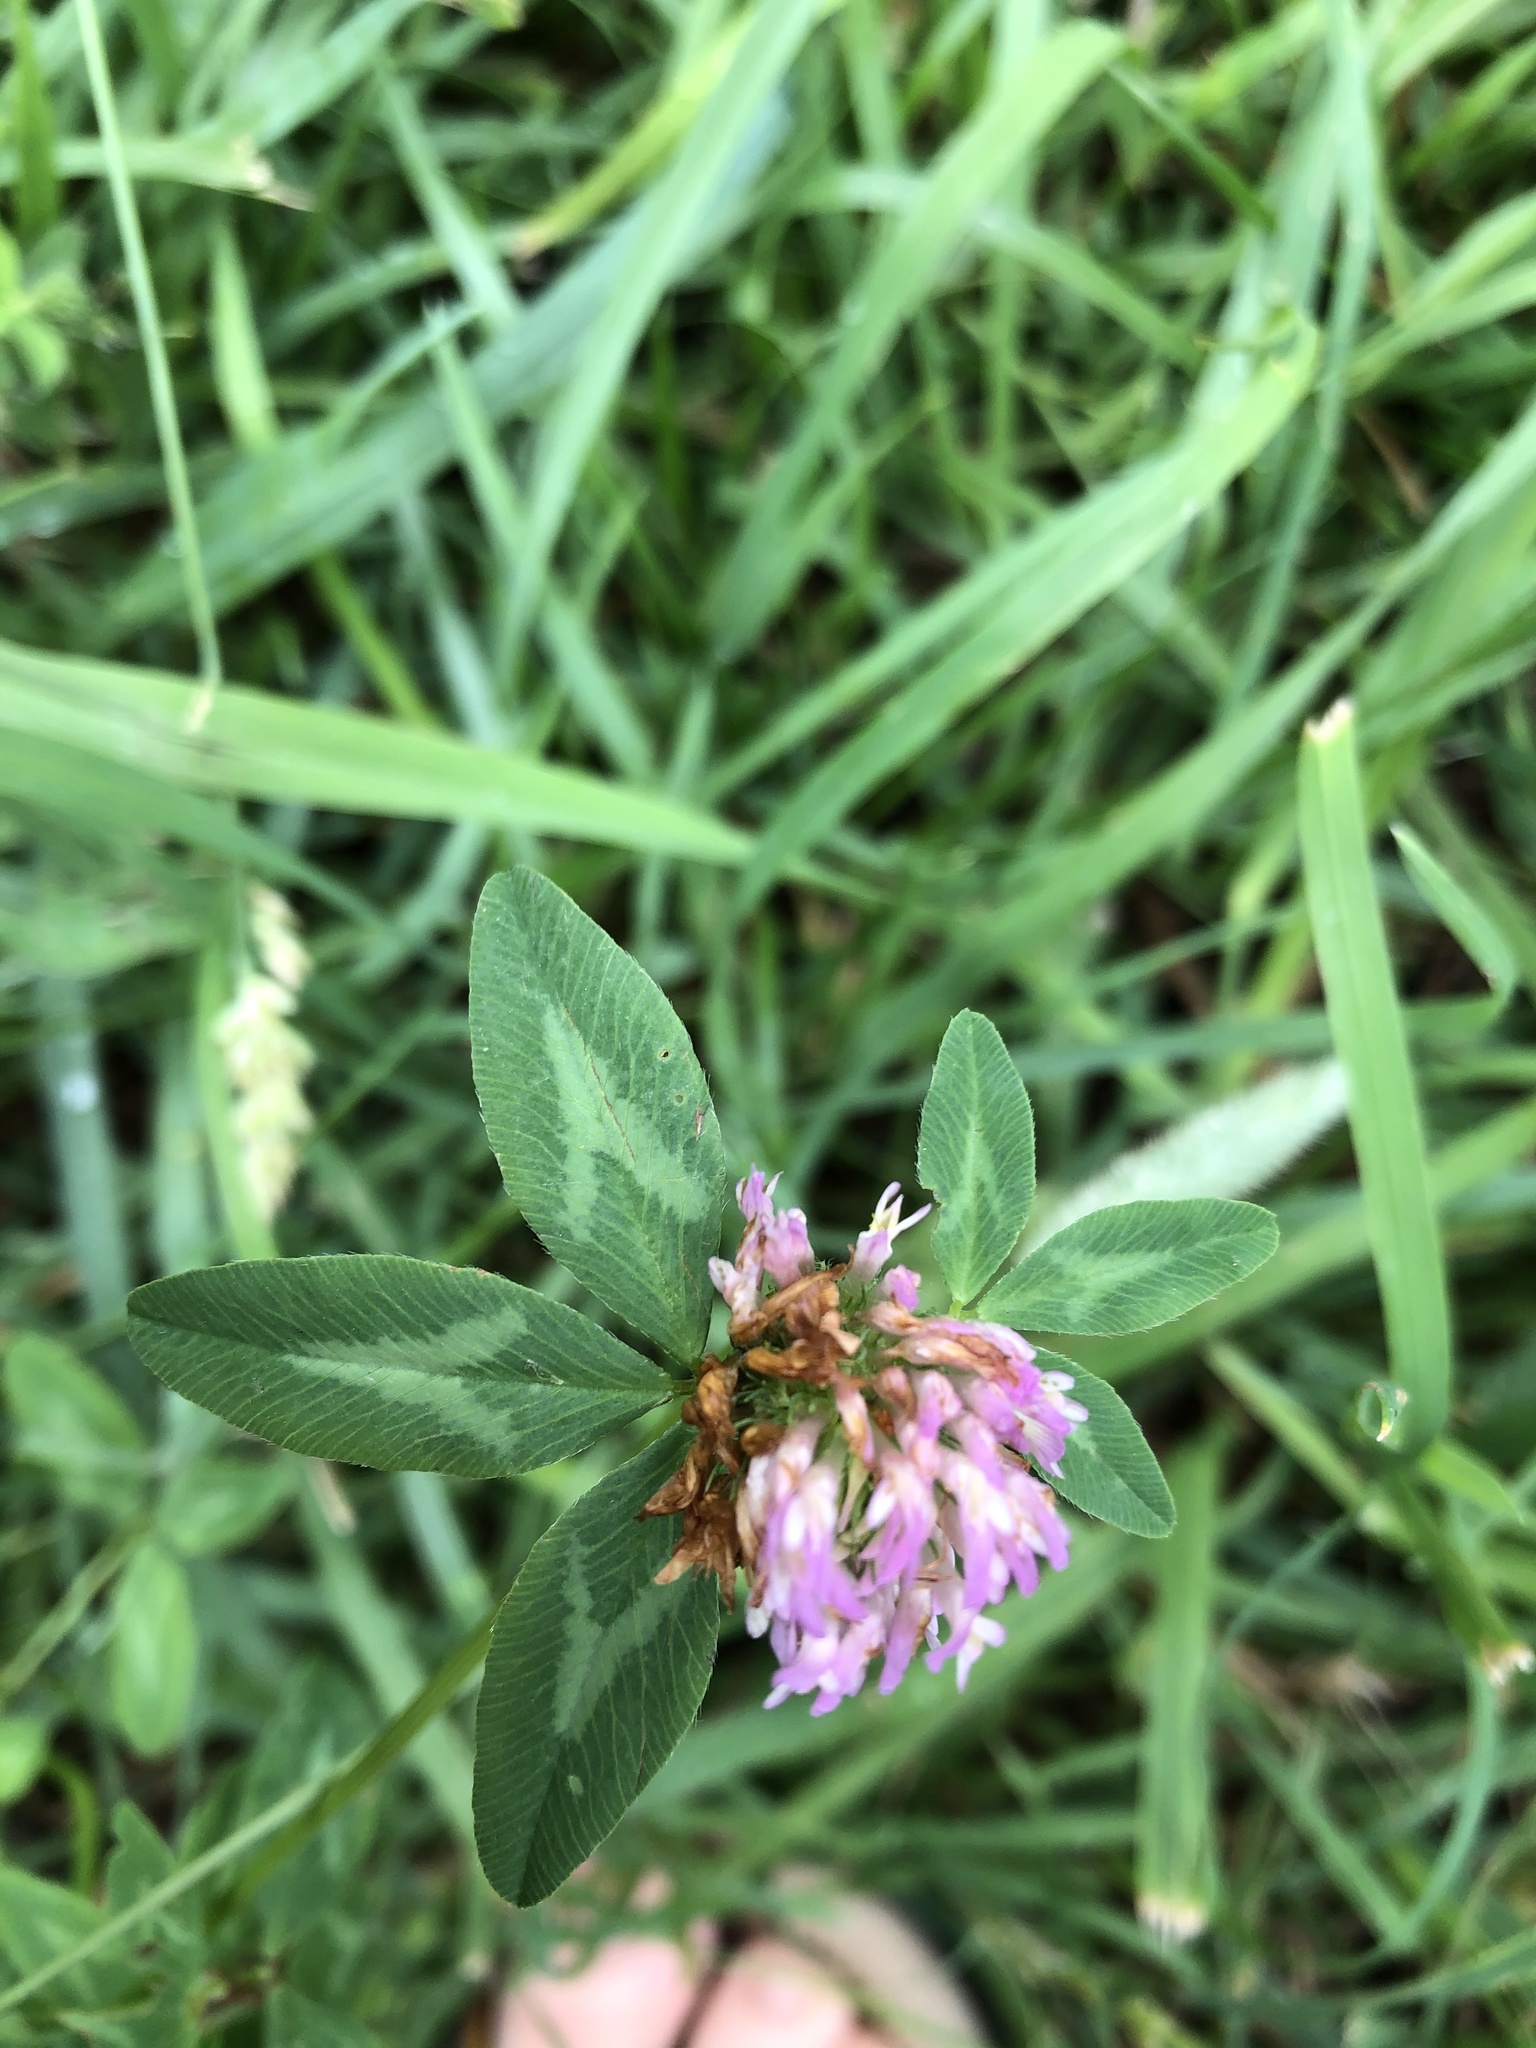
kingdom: Plantae
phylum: Tracheophyta
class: Magnoliopsida
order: Fabales
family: Fabaceae
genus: Trifolium
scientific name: Trifolium pratense
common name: Red clover
